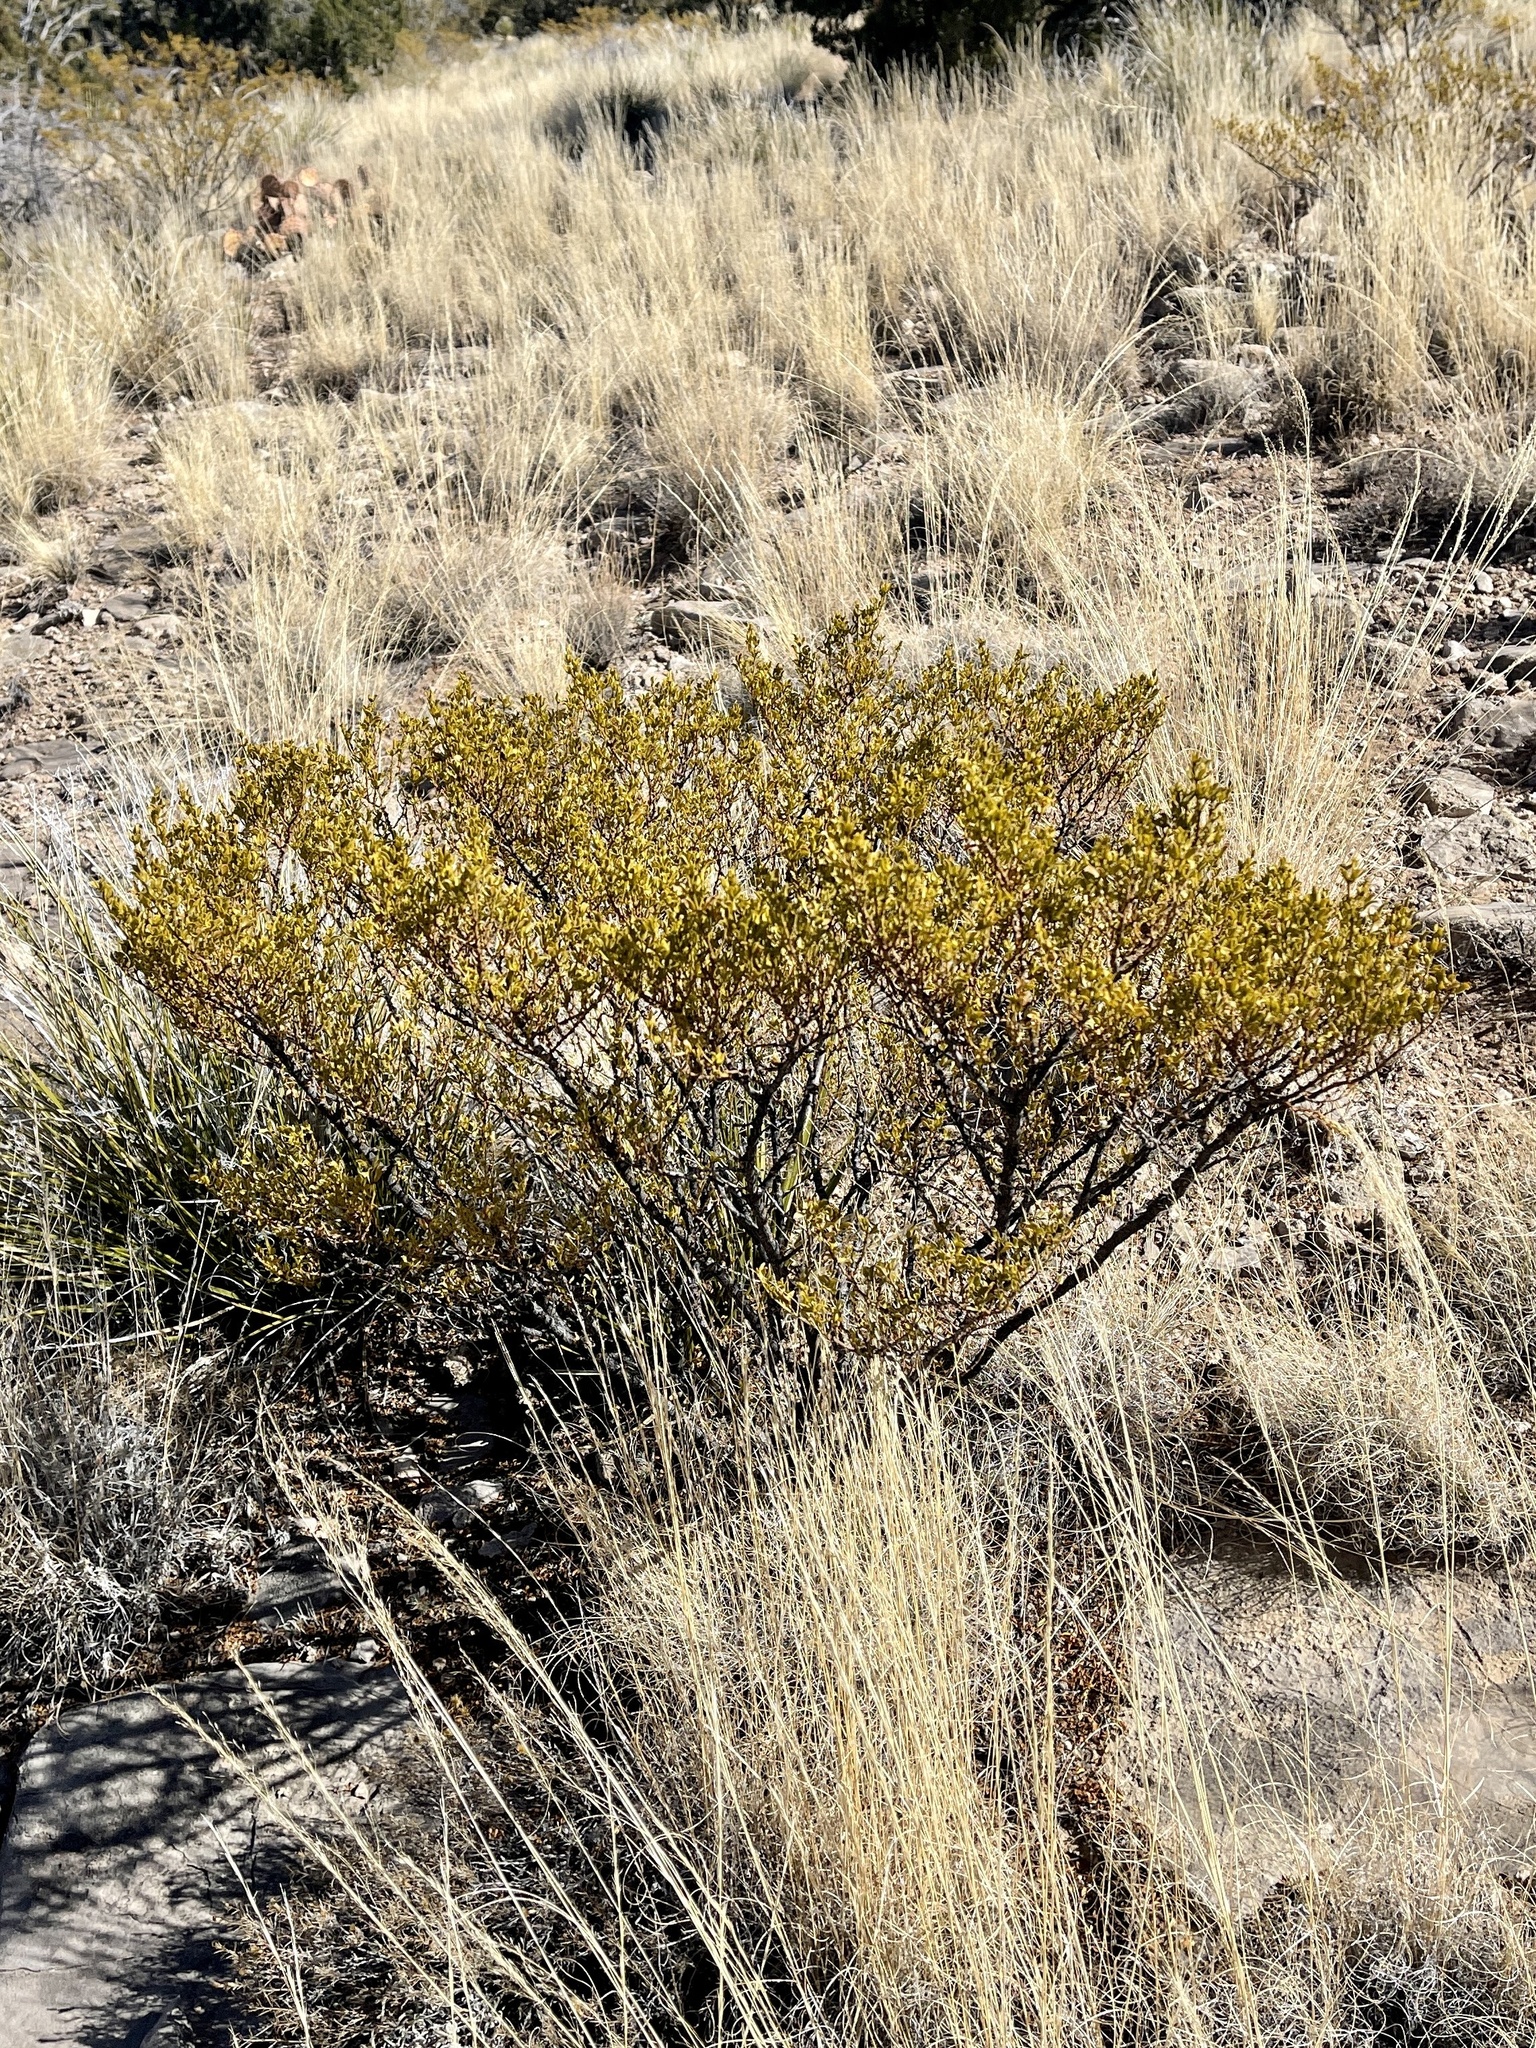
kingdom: Plantae
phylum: Tracheophyta
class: Magnoliopsida
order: Zygophyllales
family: Zygophyllaceae
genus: Larrea
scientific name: Larrea tridentata
